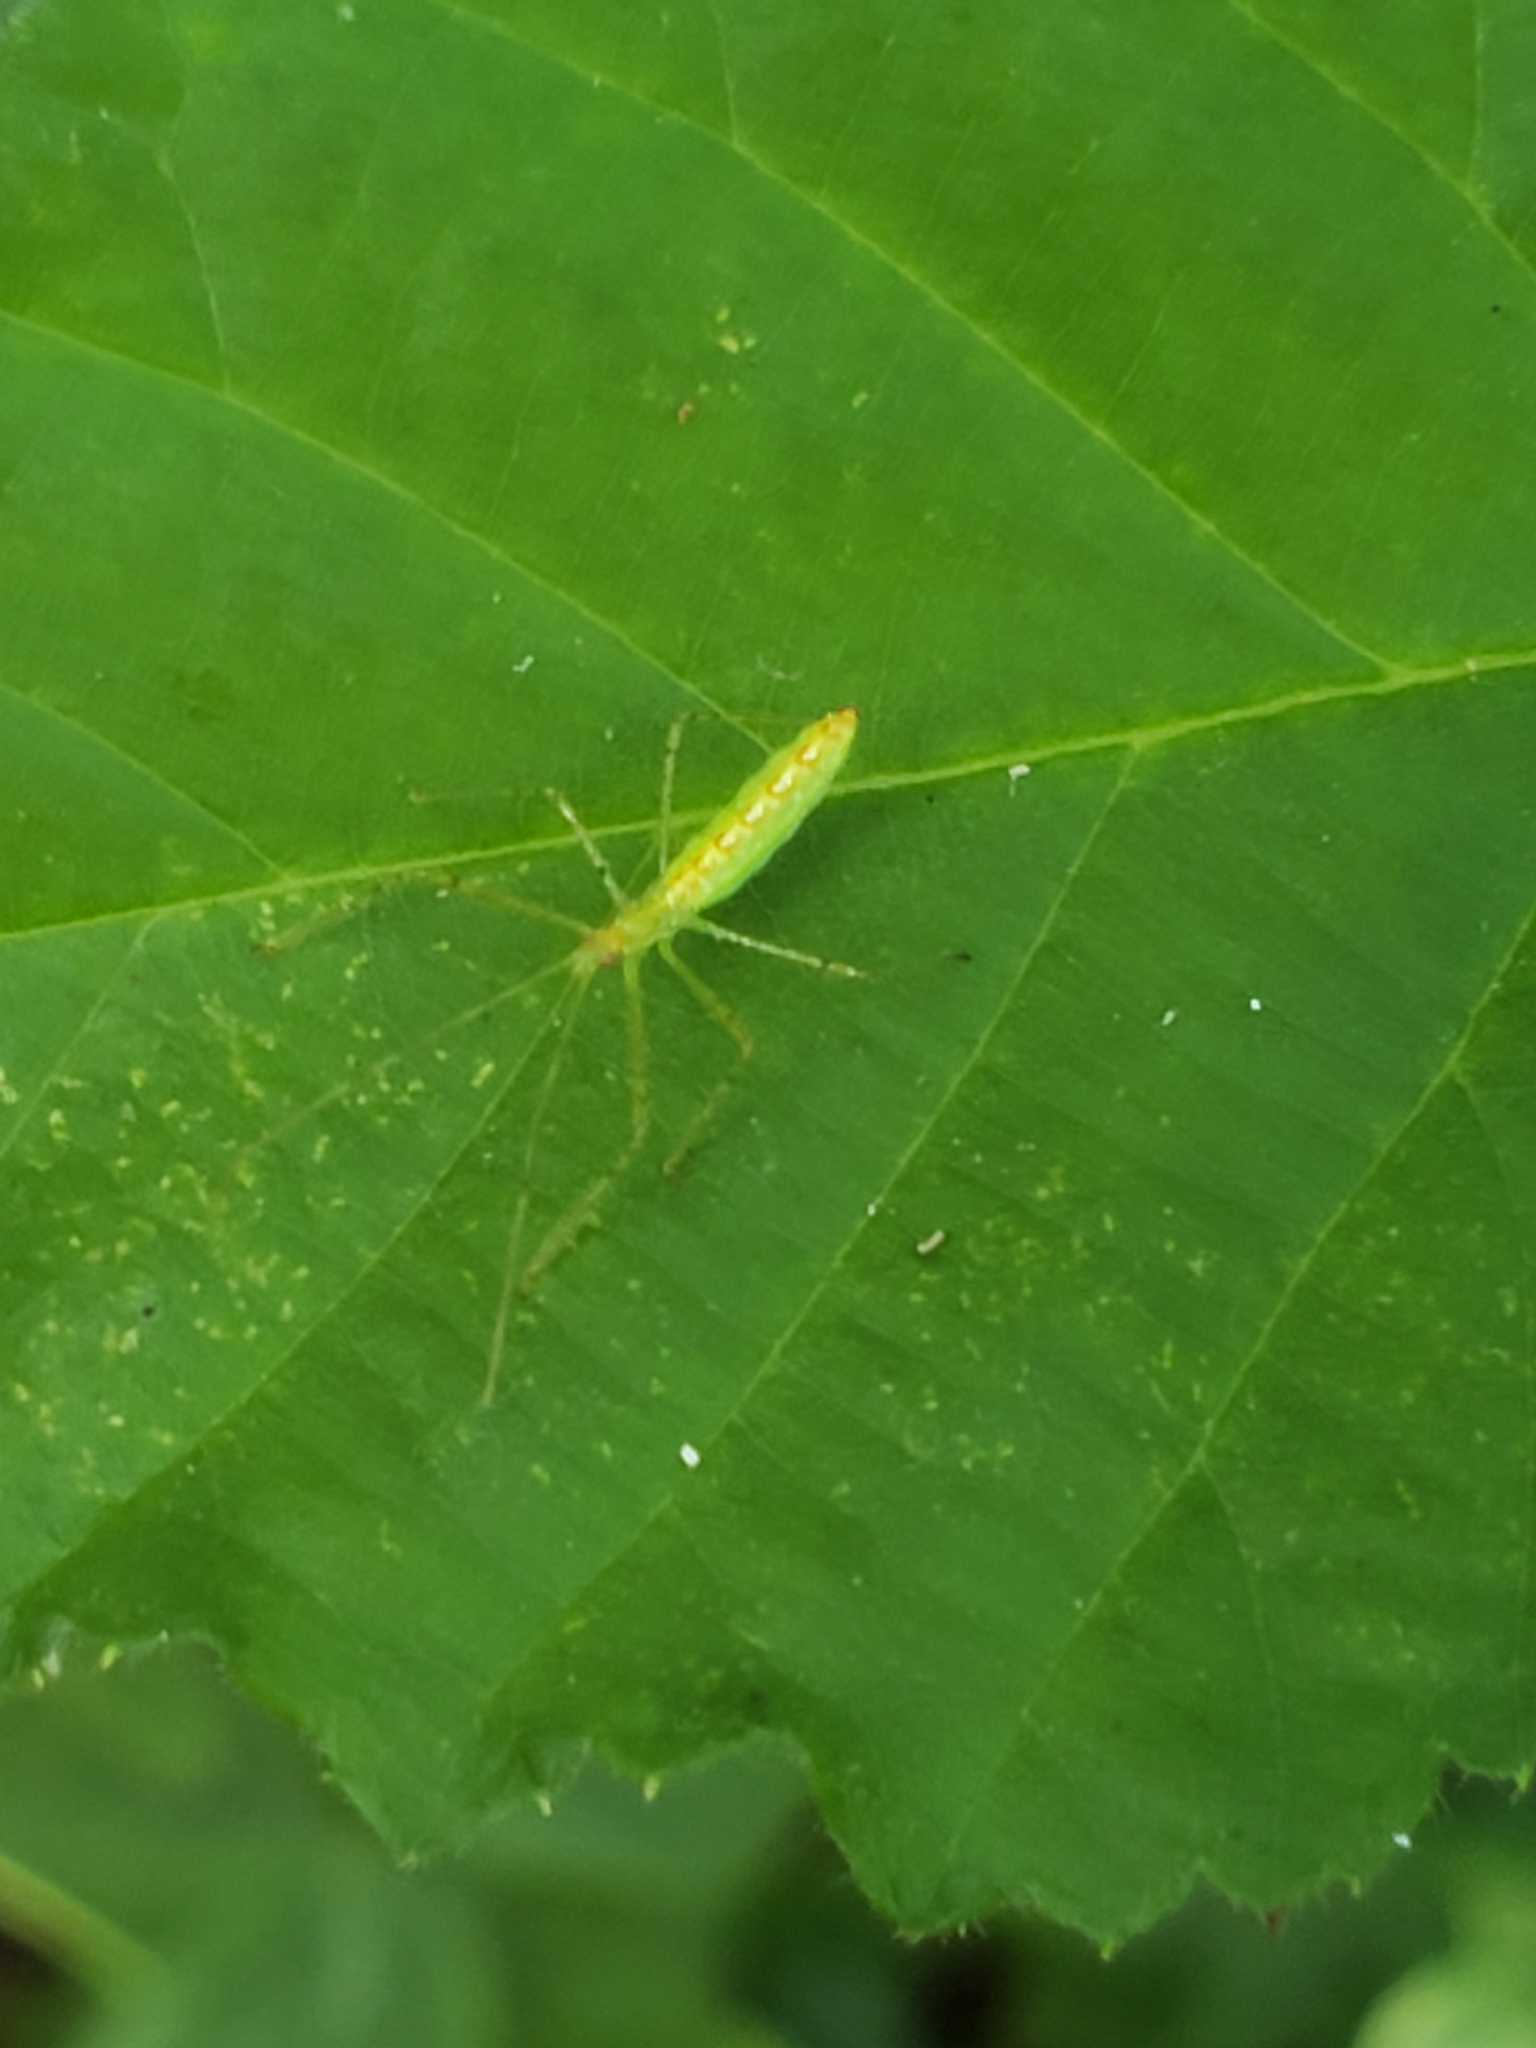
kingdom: Animalia
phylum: Arthropoda
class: Insecta
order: Hemiptera
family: Reduviidae
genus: Zelus
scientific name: Zelus luridus
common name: Pale green assassin bug
